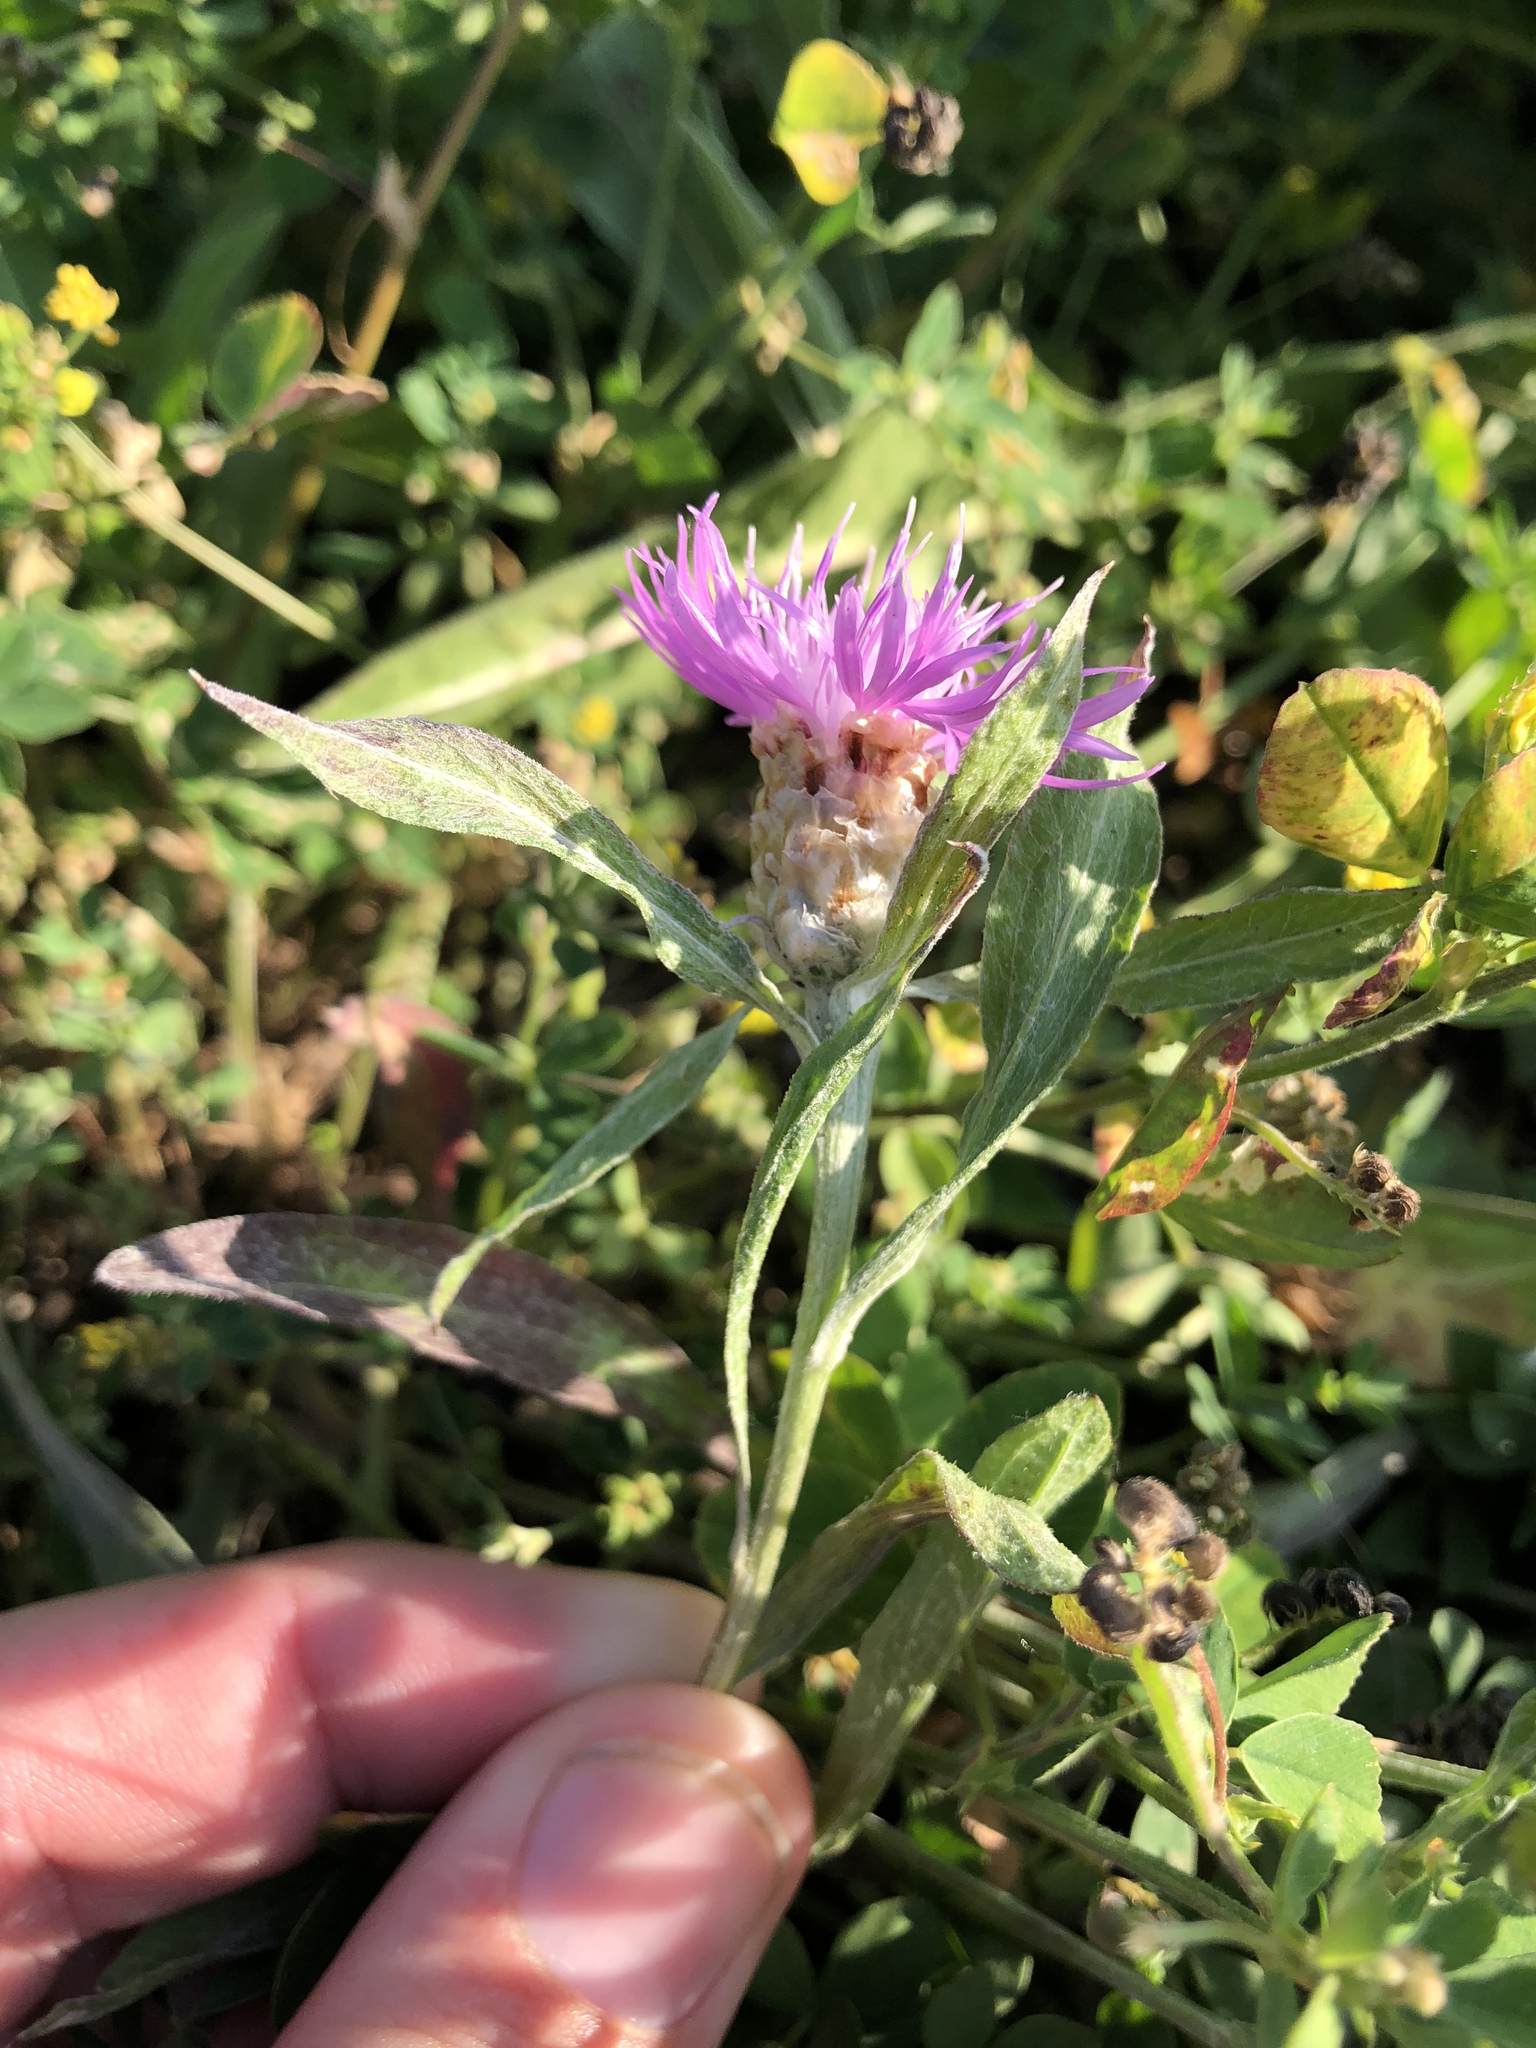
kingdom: Plantae
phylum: Tracheophyta
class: Magnoliopsida
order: Asterales
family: Asteraceae
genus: Centaurea
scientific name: Centaurea jacea
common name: Brown knapweed
